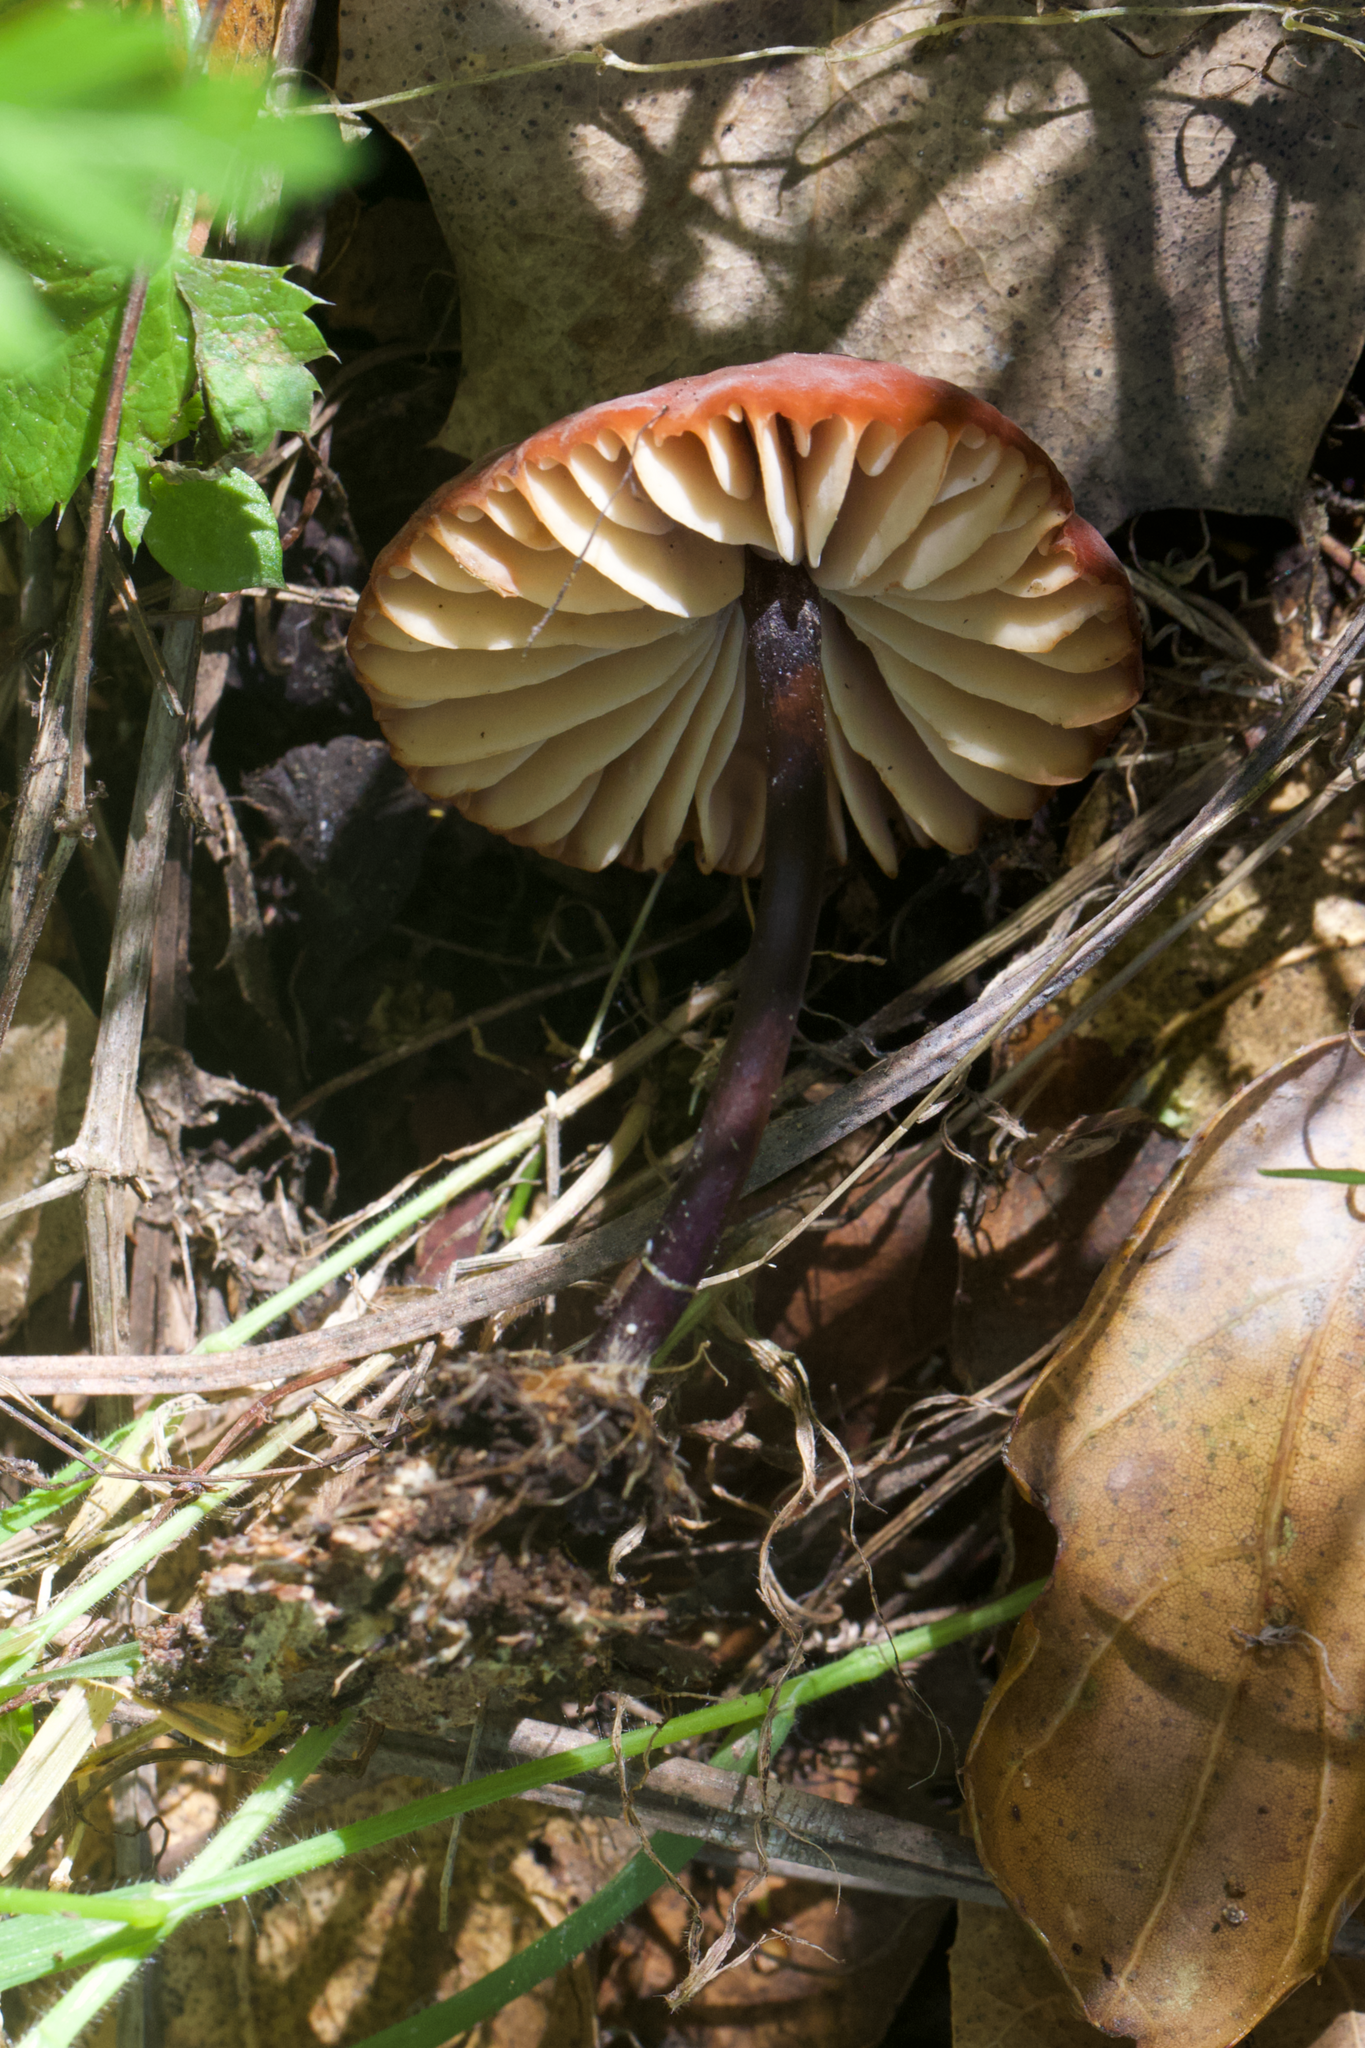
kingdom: Fungi
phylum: Basidiomycota
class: Agaricomycetes
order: Agaricales
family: Marasmiaceae
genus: Marasmius
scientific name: Marasmius plicatulus
